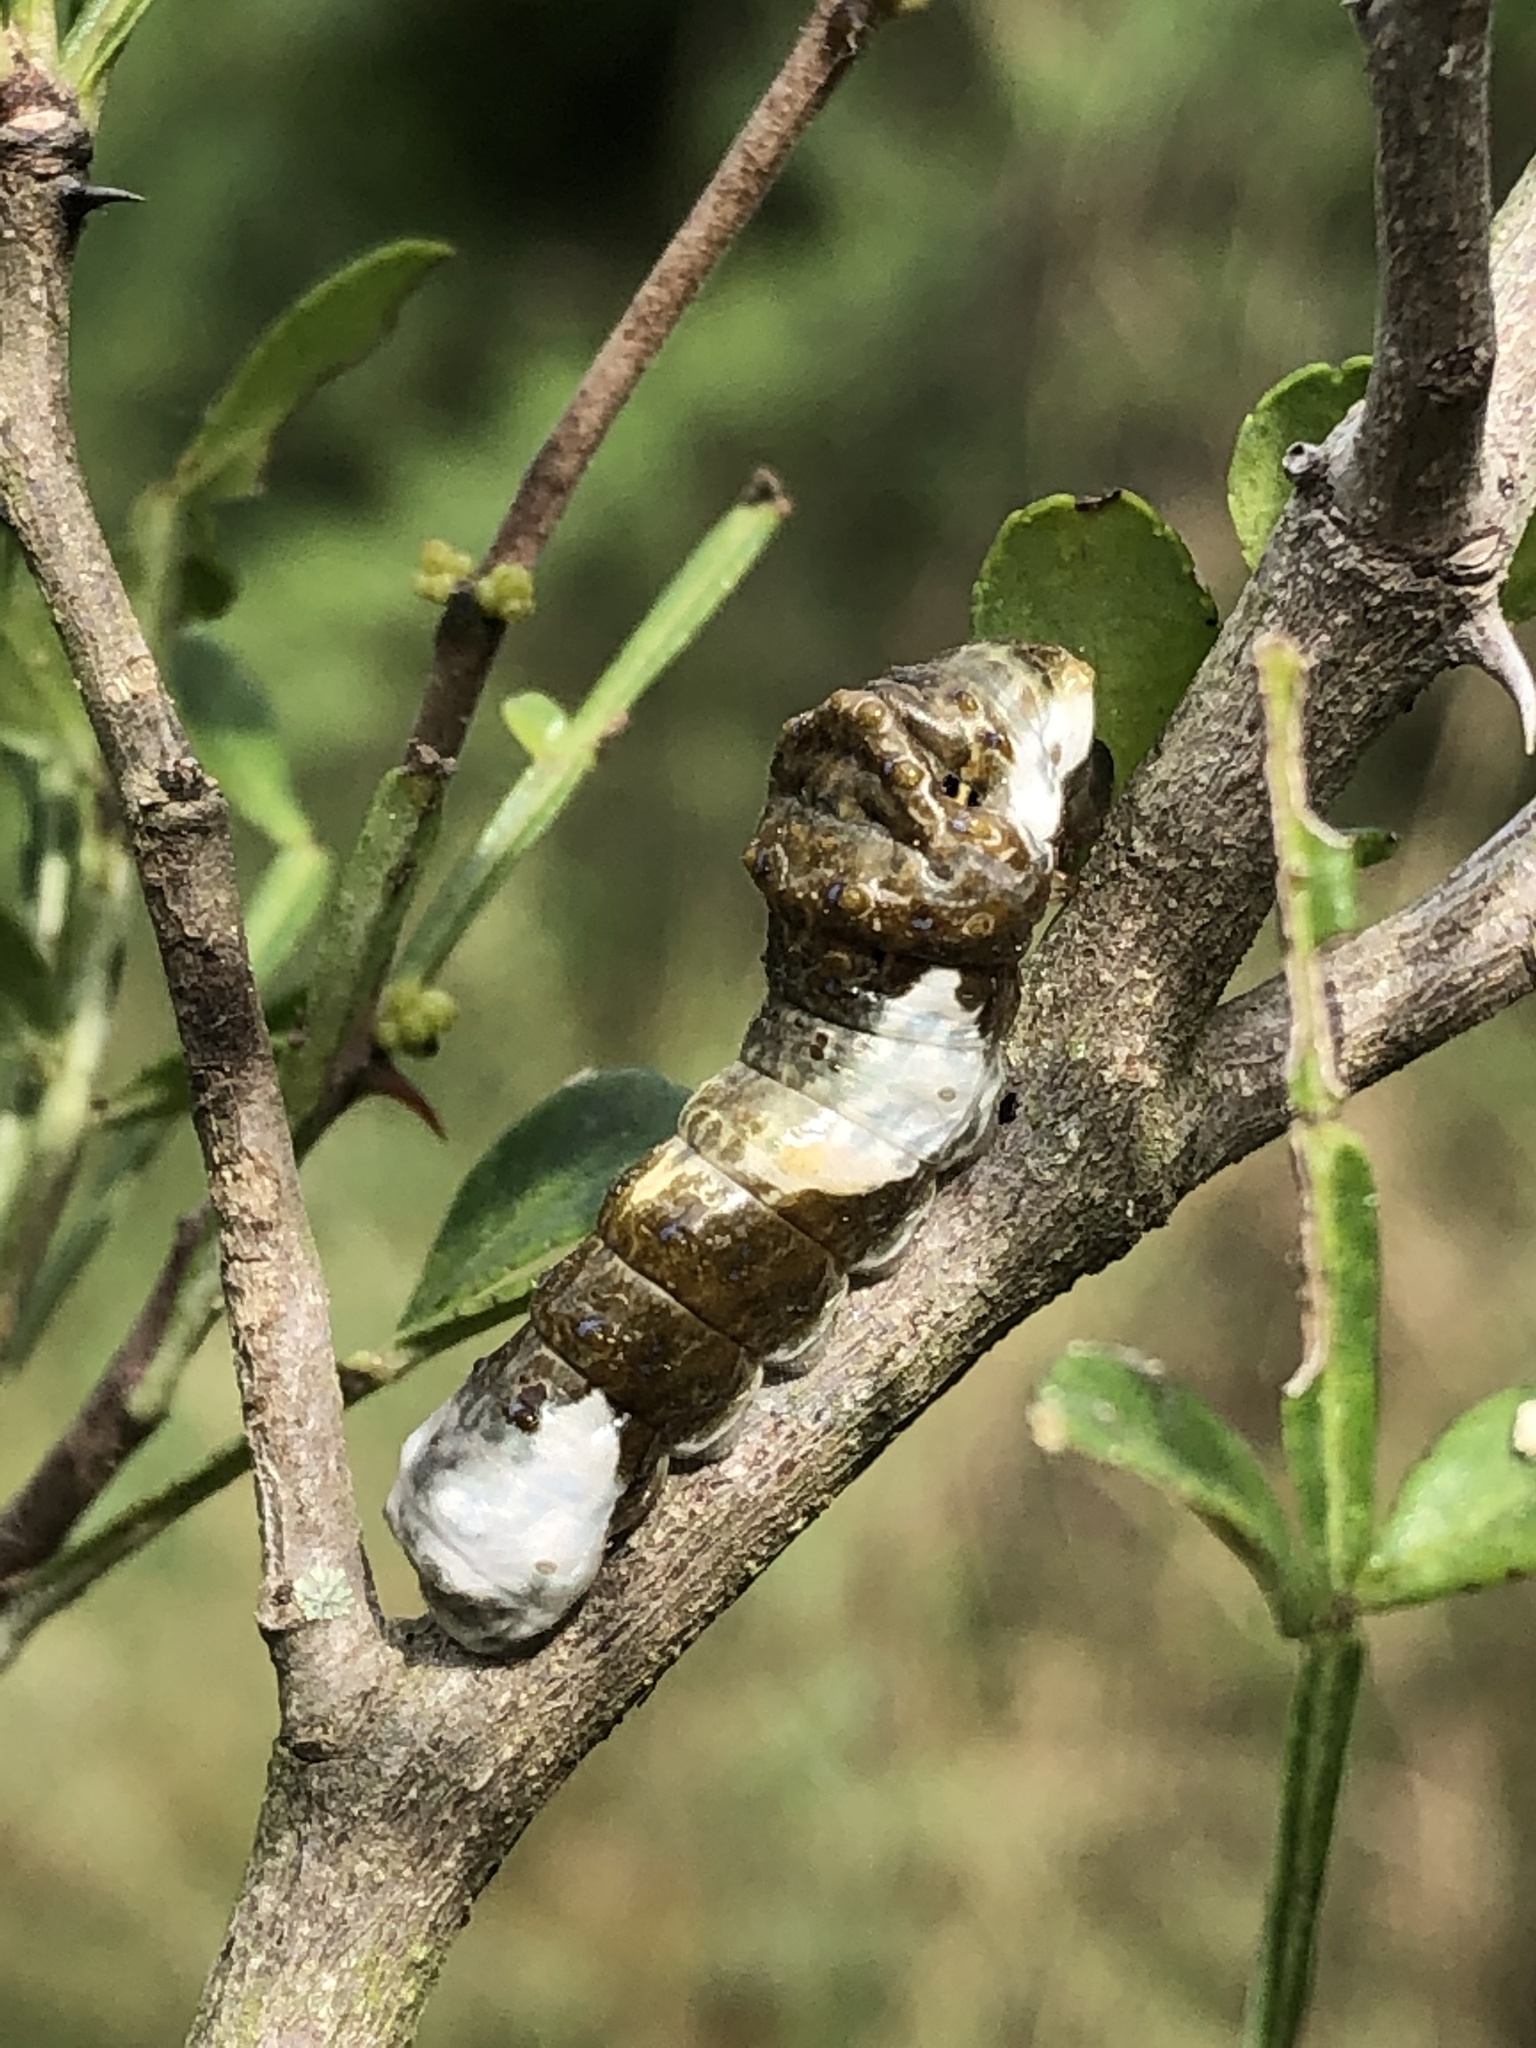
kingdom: Animalia
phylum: Arthropoda
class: Insecta
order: Lepidoptera
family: Papilionidae
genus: Papilio
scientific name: Papilio rumiko
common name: Western giant swallowtail
